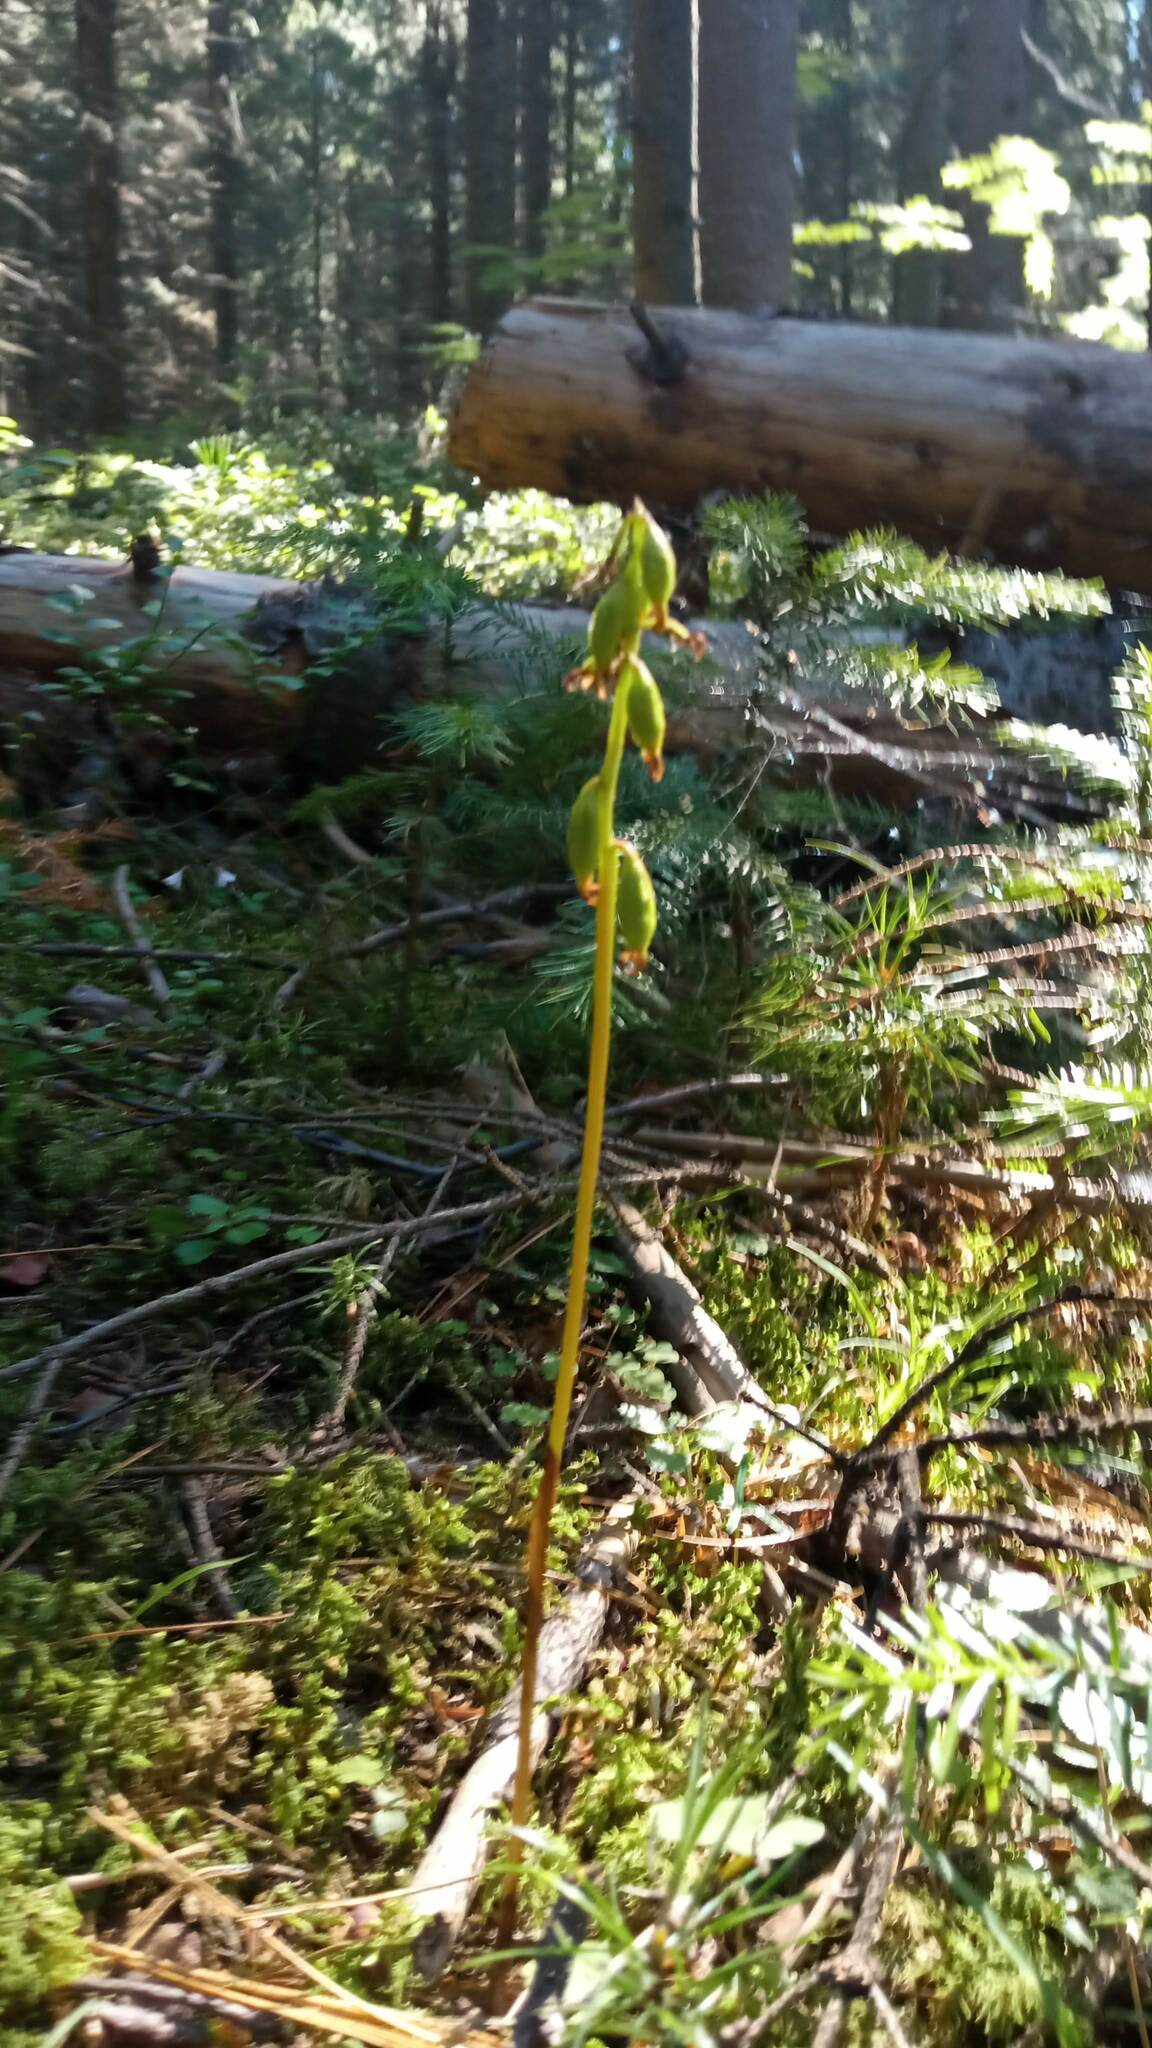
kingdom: Plantae
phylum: Tracheophyta
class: Liliopsida
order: Asparagales
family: Orchidaceae
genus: Corallorhiza
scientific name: Corallorhiza trifida
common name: Yellow coralroot
